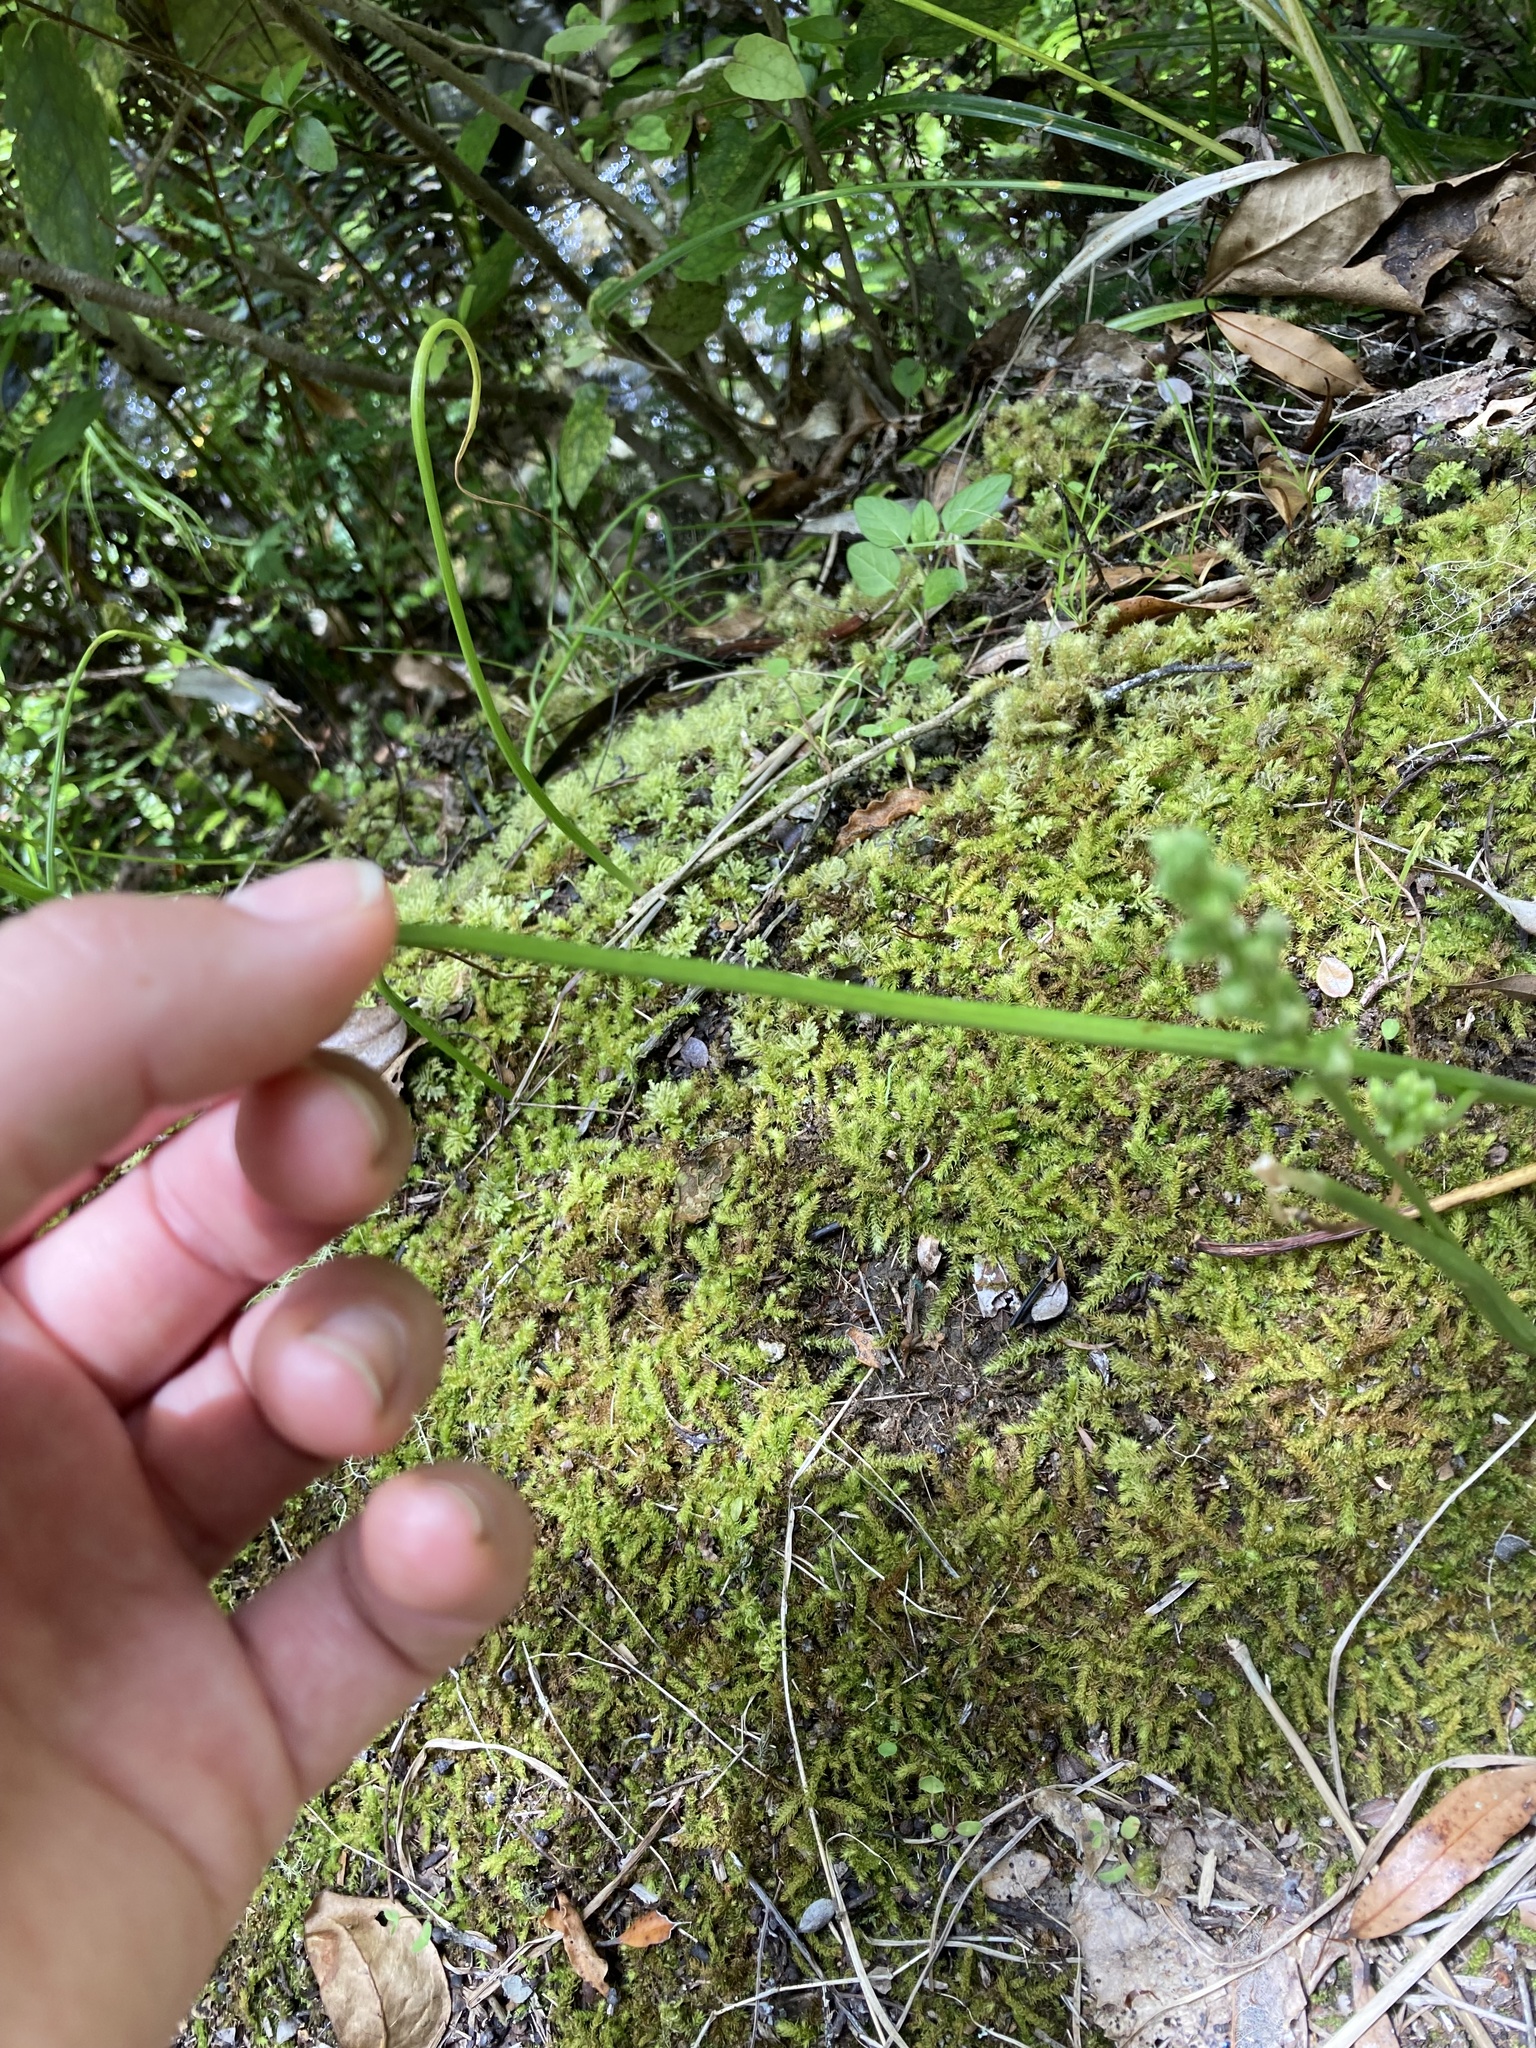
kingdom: Plantae
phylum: Tracheophyta
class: Liliopsida
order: Asparagales
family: Orchidaceae
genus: Microtis
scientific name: Microtis unifolia
